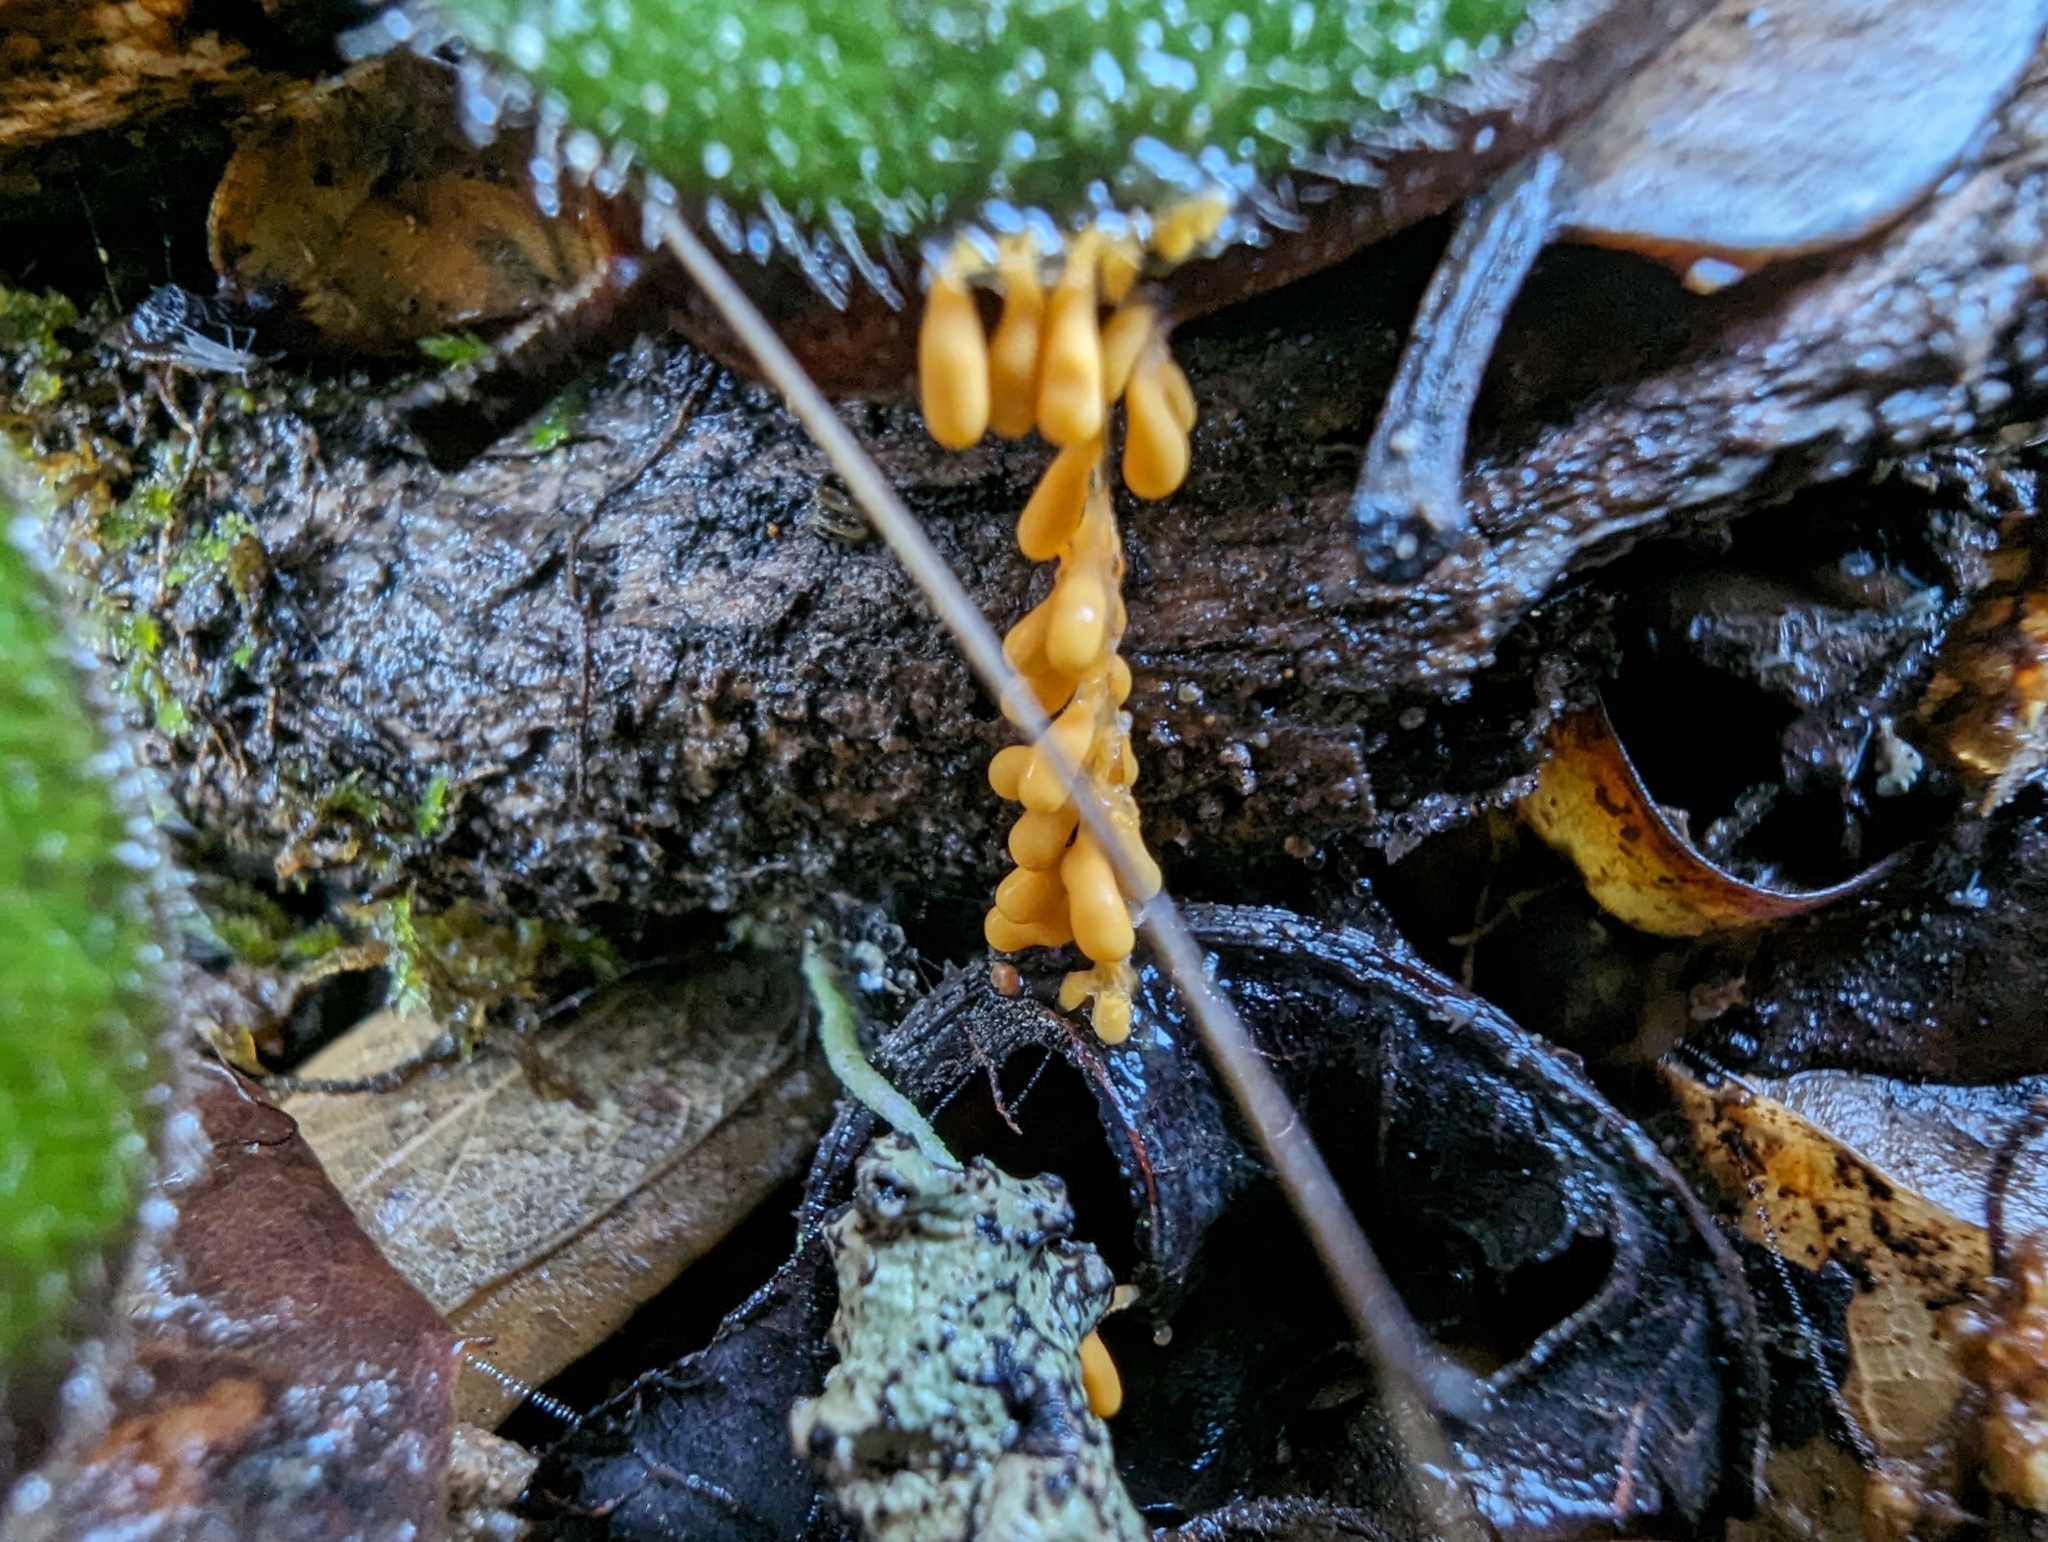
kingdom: Protozoa
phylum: Mycetozoa
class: Myxomycetes
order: Physarales
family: Physaraceae
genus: Leocarpus
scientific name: Leocarpus fragilis
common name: Insect-egg slime
